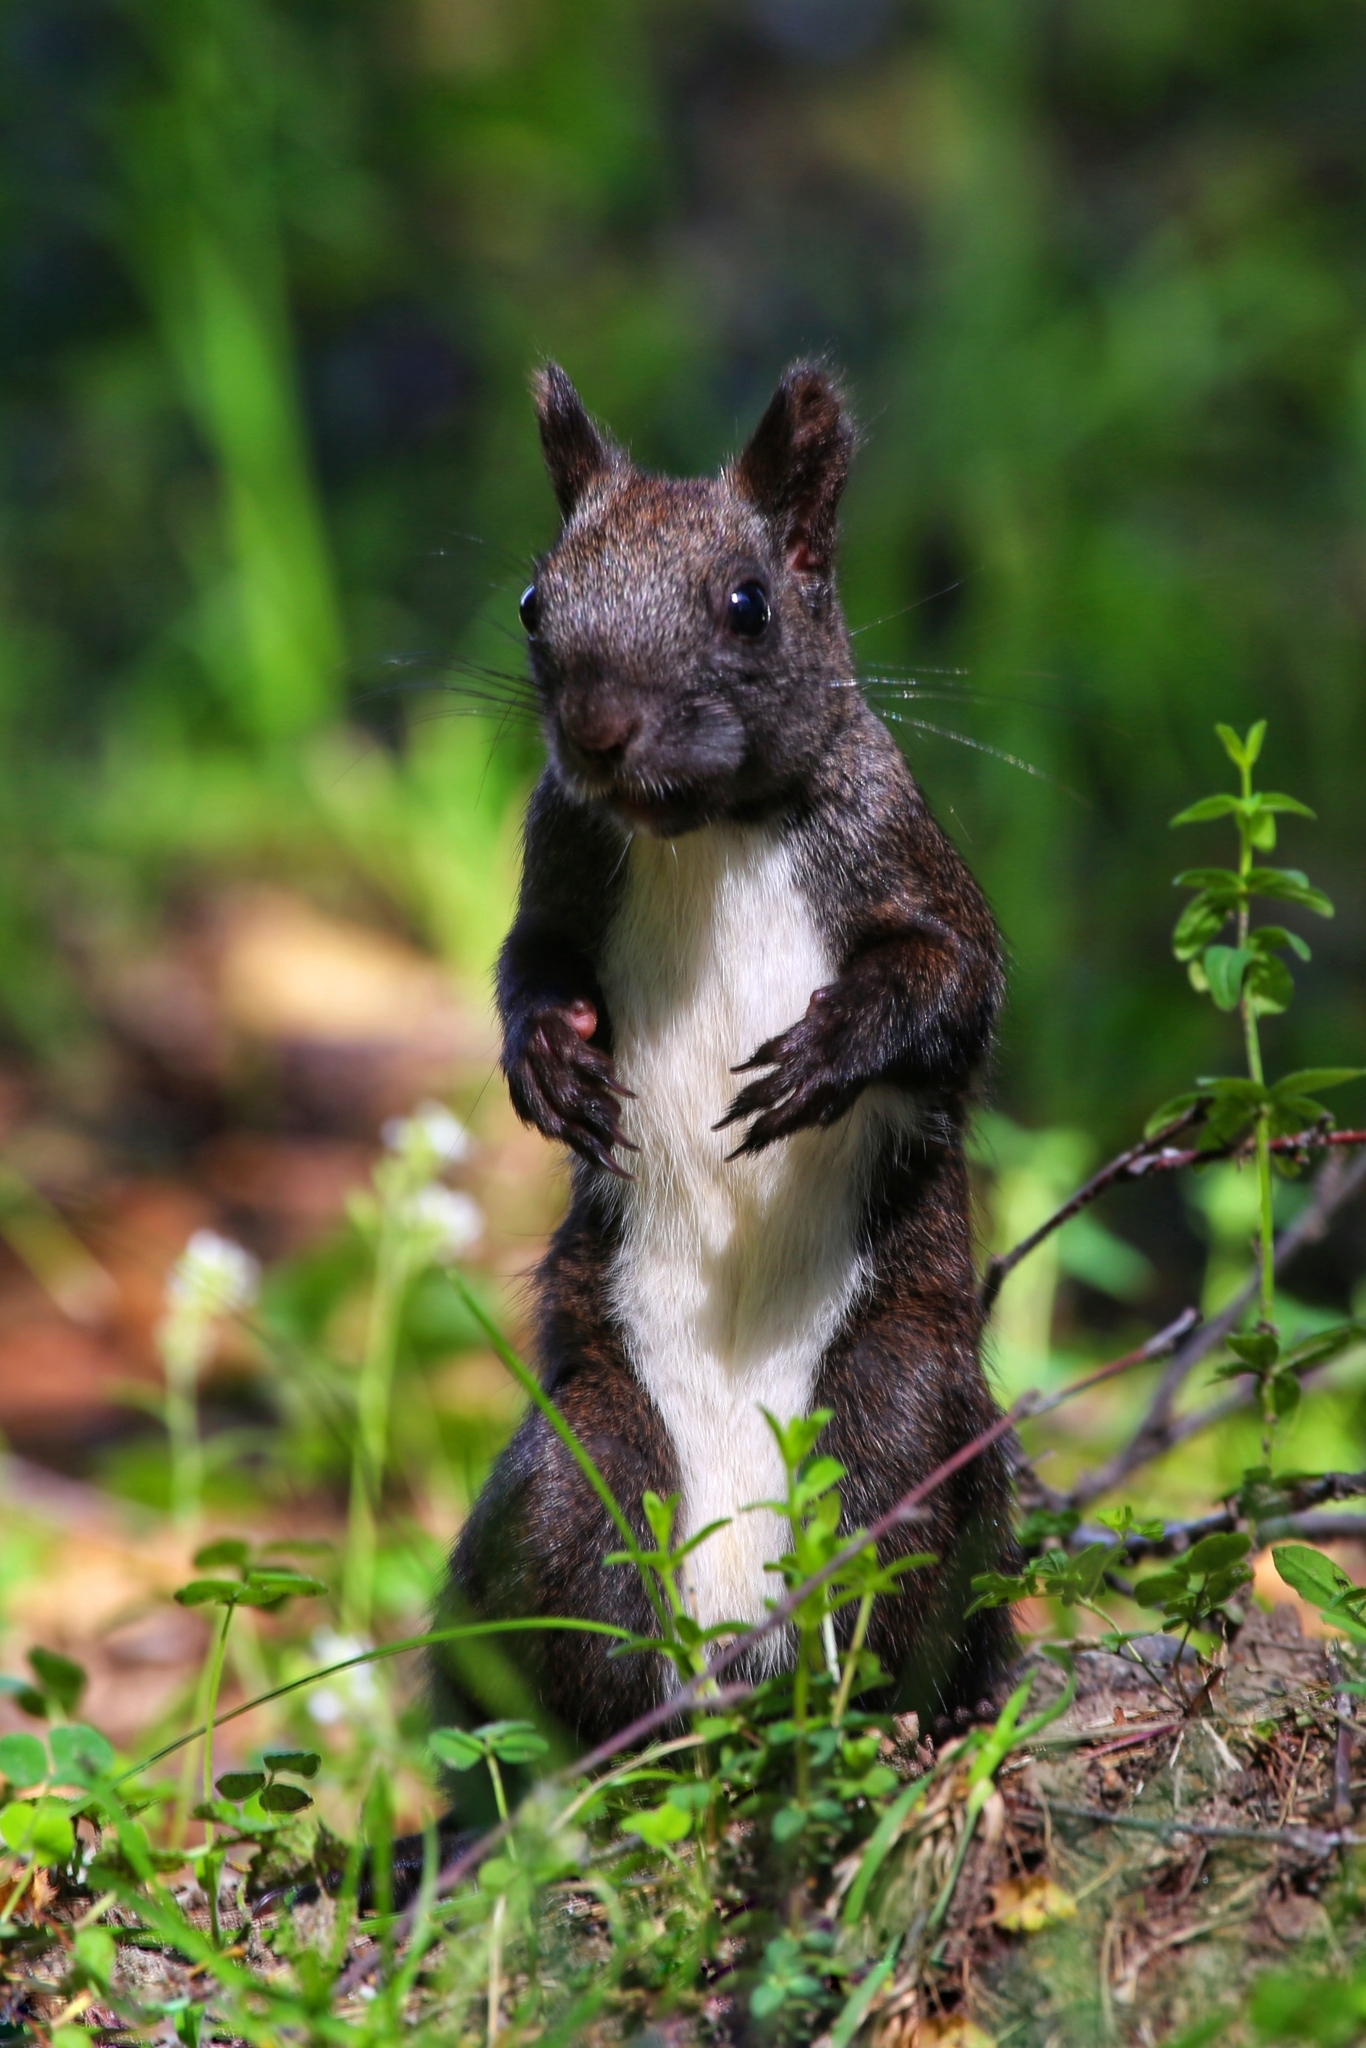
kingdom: Animalia
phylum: Chordata
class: Mammalia
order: Rodentia
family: Sciuridae
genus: Sciurus
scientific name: Sciurus vulgaris
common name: Eurasian red squirrel
